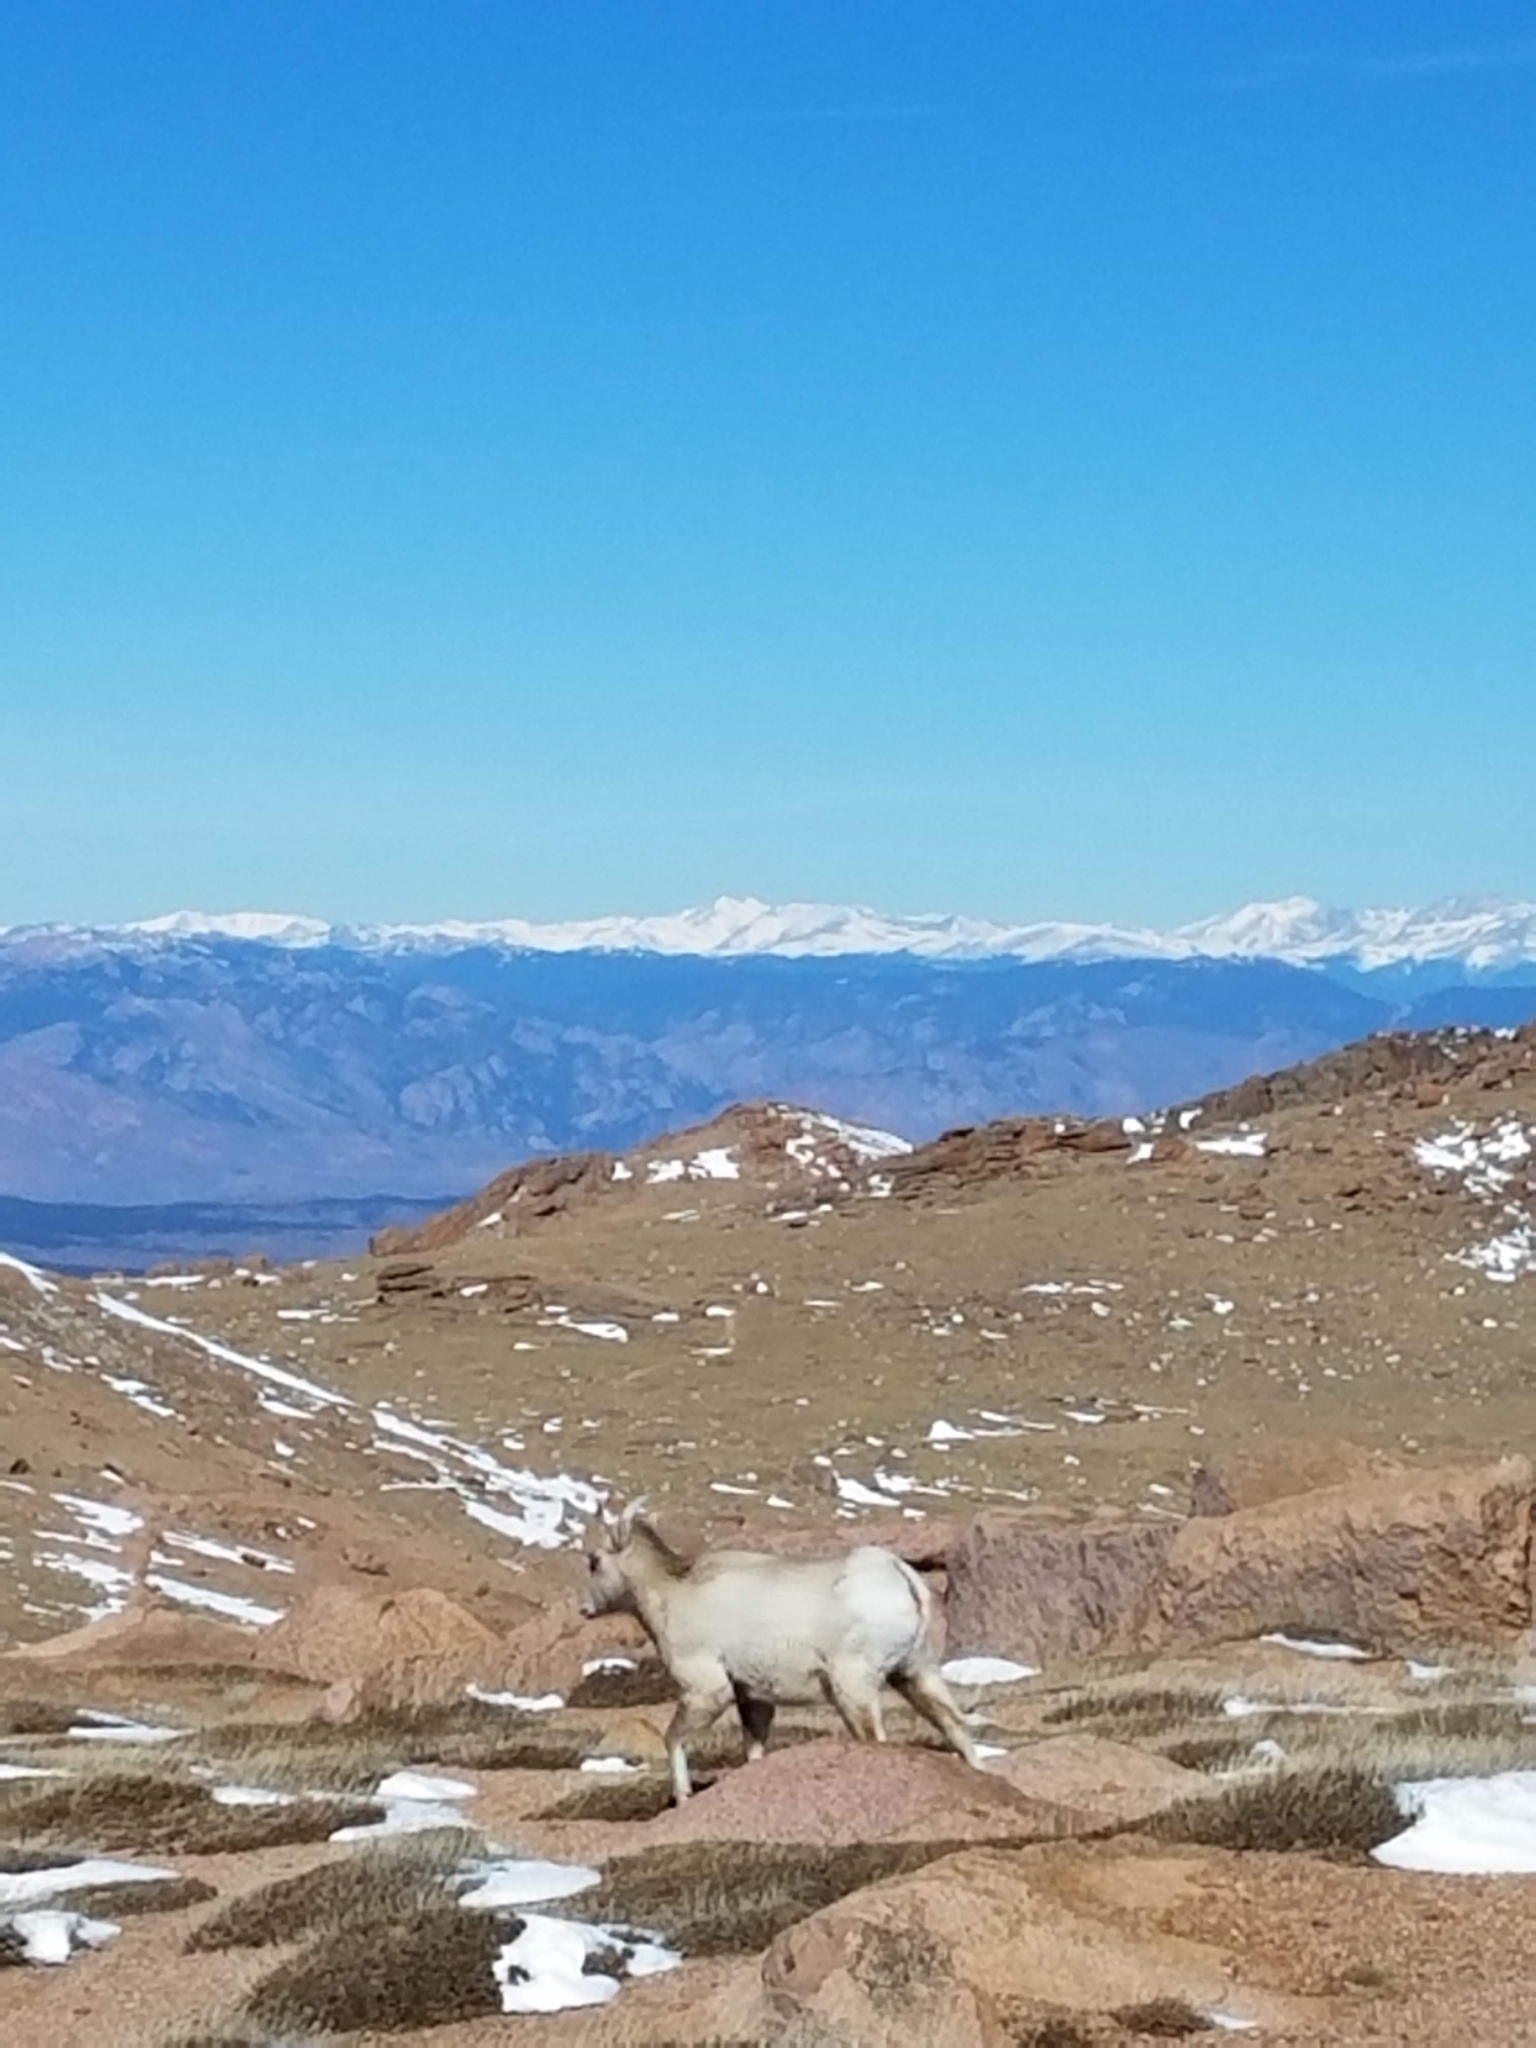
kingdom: Animalia
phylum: Chordata
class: Mammalia
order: Artiodactyla
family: Bovidae
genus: Ovis
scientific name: Ovis canadensis
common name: Bighorn sheep
